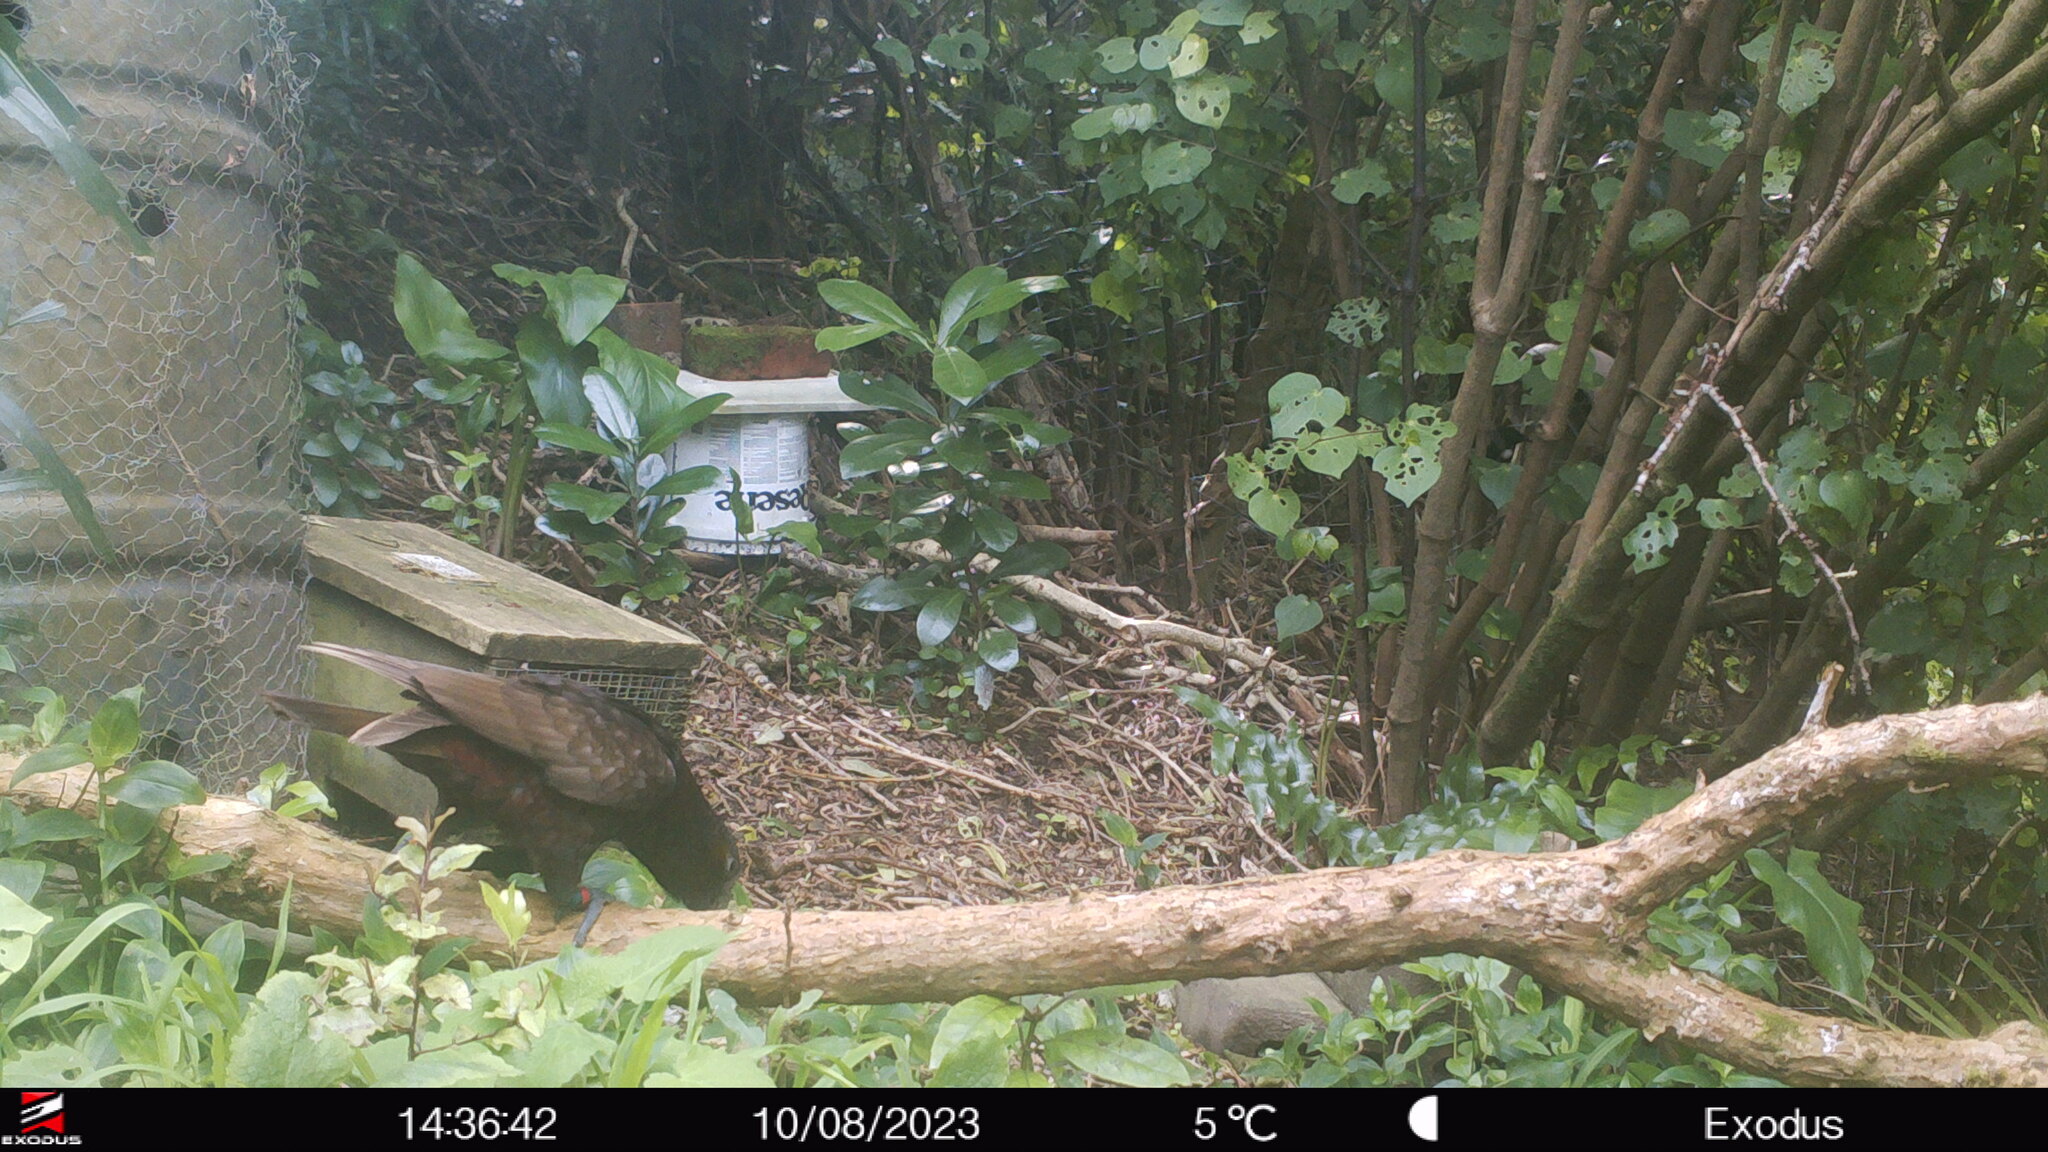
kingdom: Animalia
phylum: Chordata
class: Aves
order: Psittaciformes
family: Psittacidae
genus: Nestor
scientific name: Nestor meridionalis
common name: New zealand kaka
